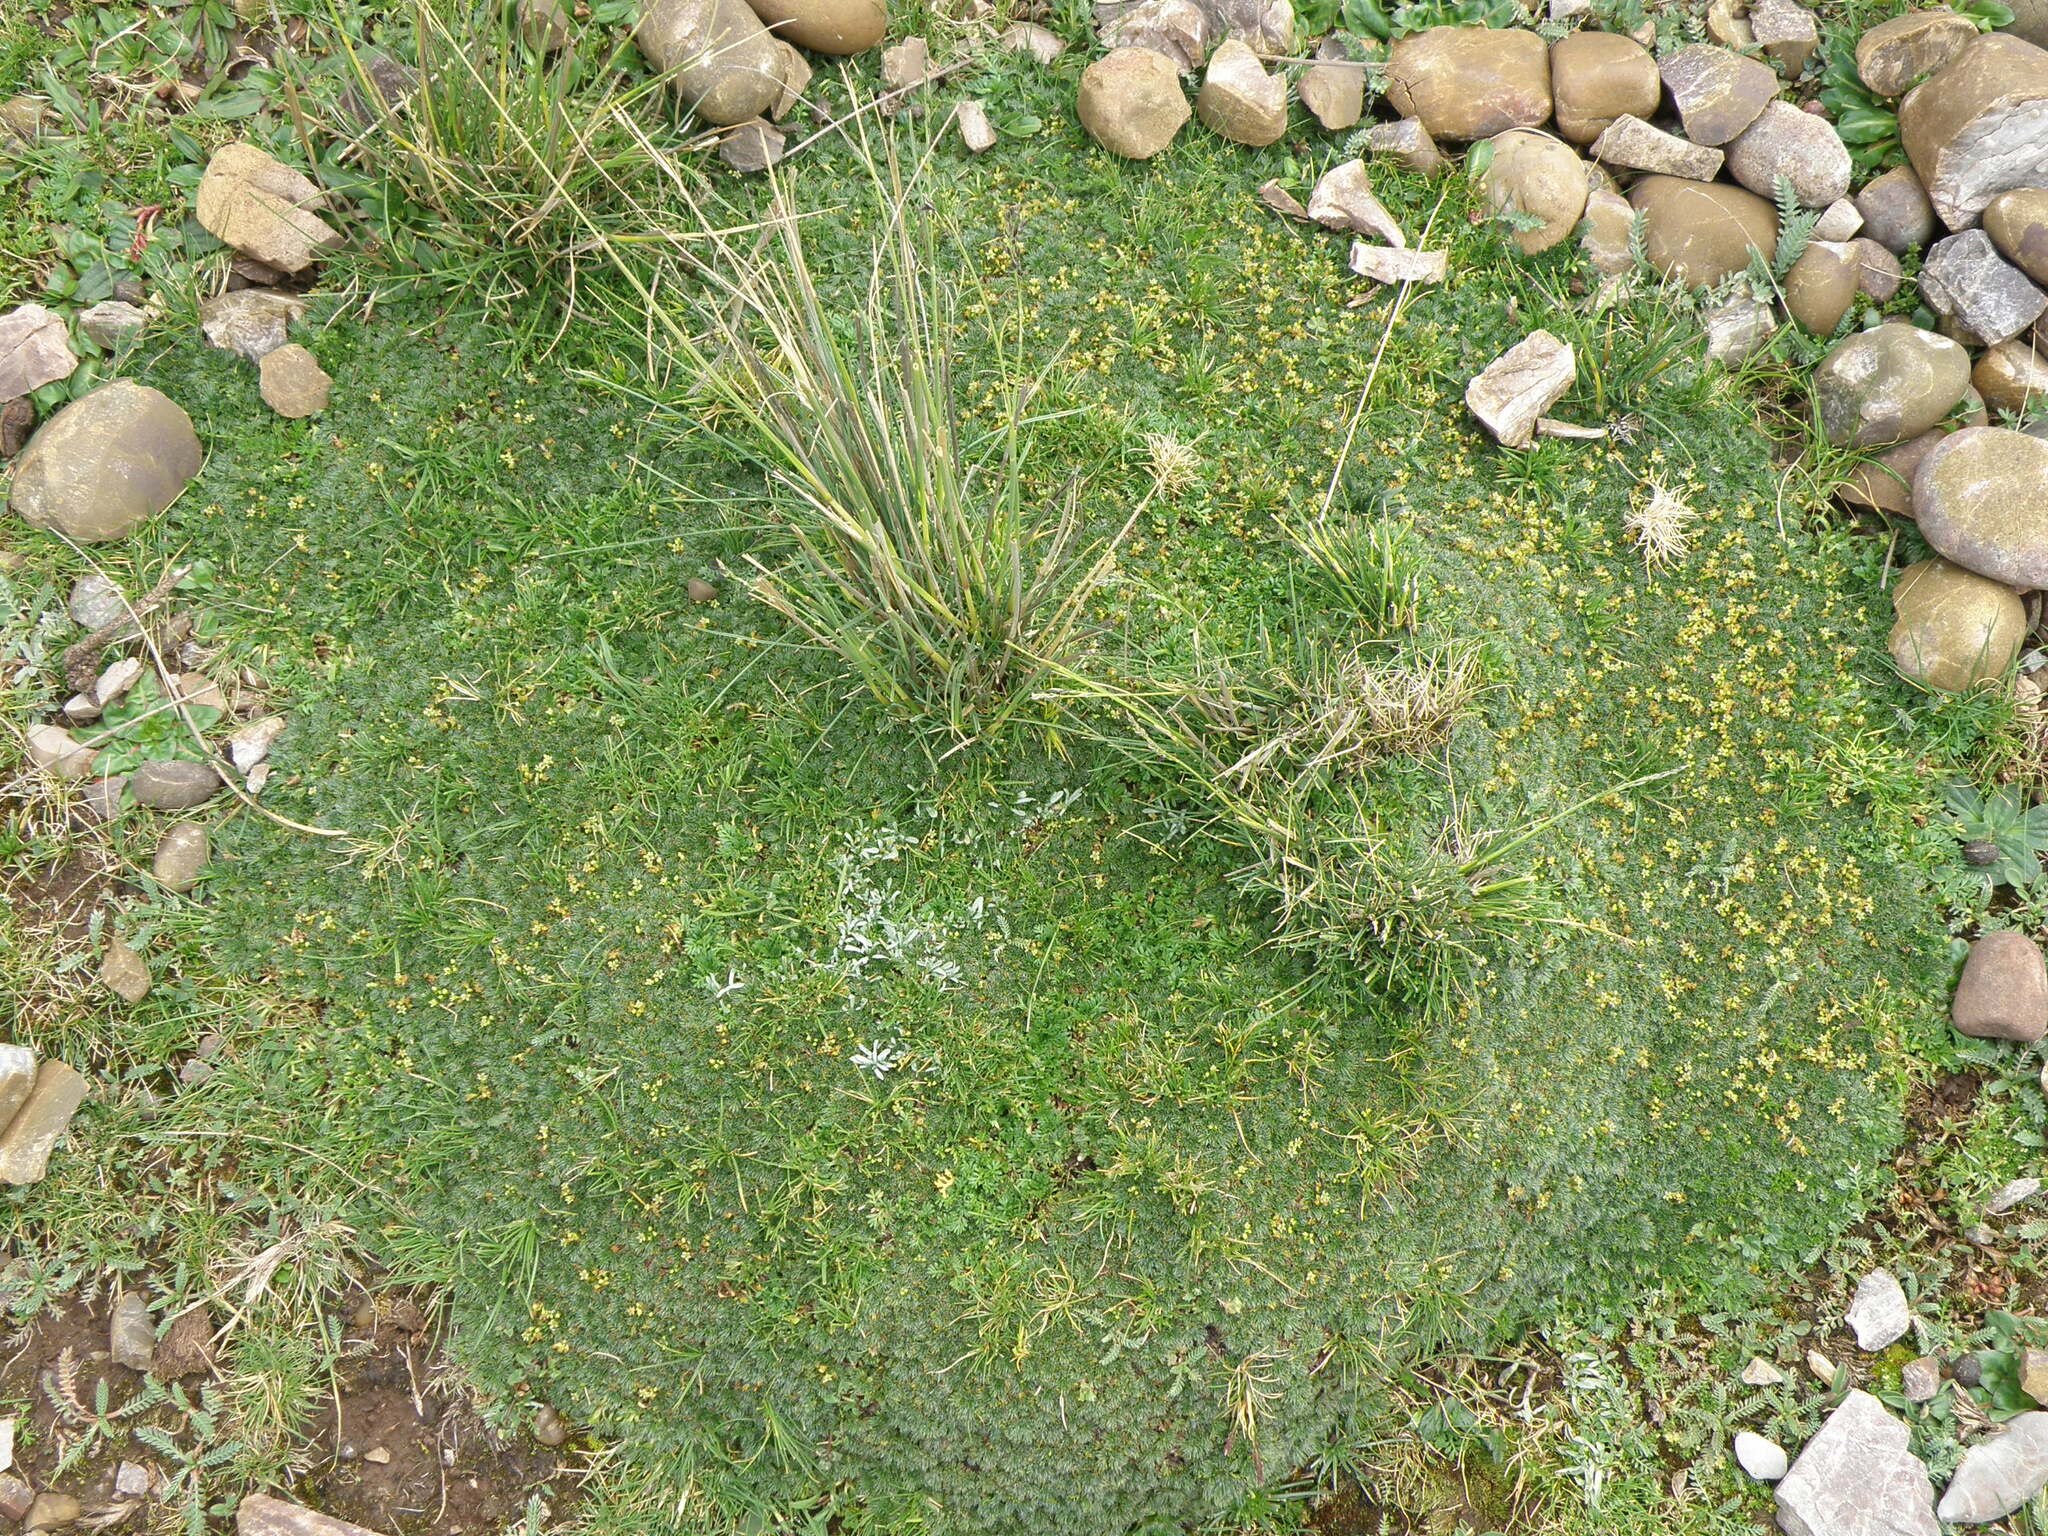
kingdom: Plantae
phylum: Tracheophyta
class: Magnoliopsida
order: Apiales
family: Apiaceae
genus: Azorella
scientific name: Azorella multifida
